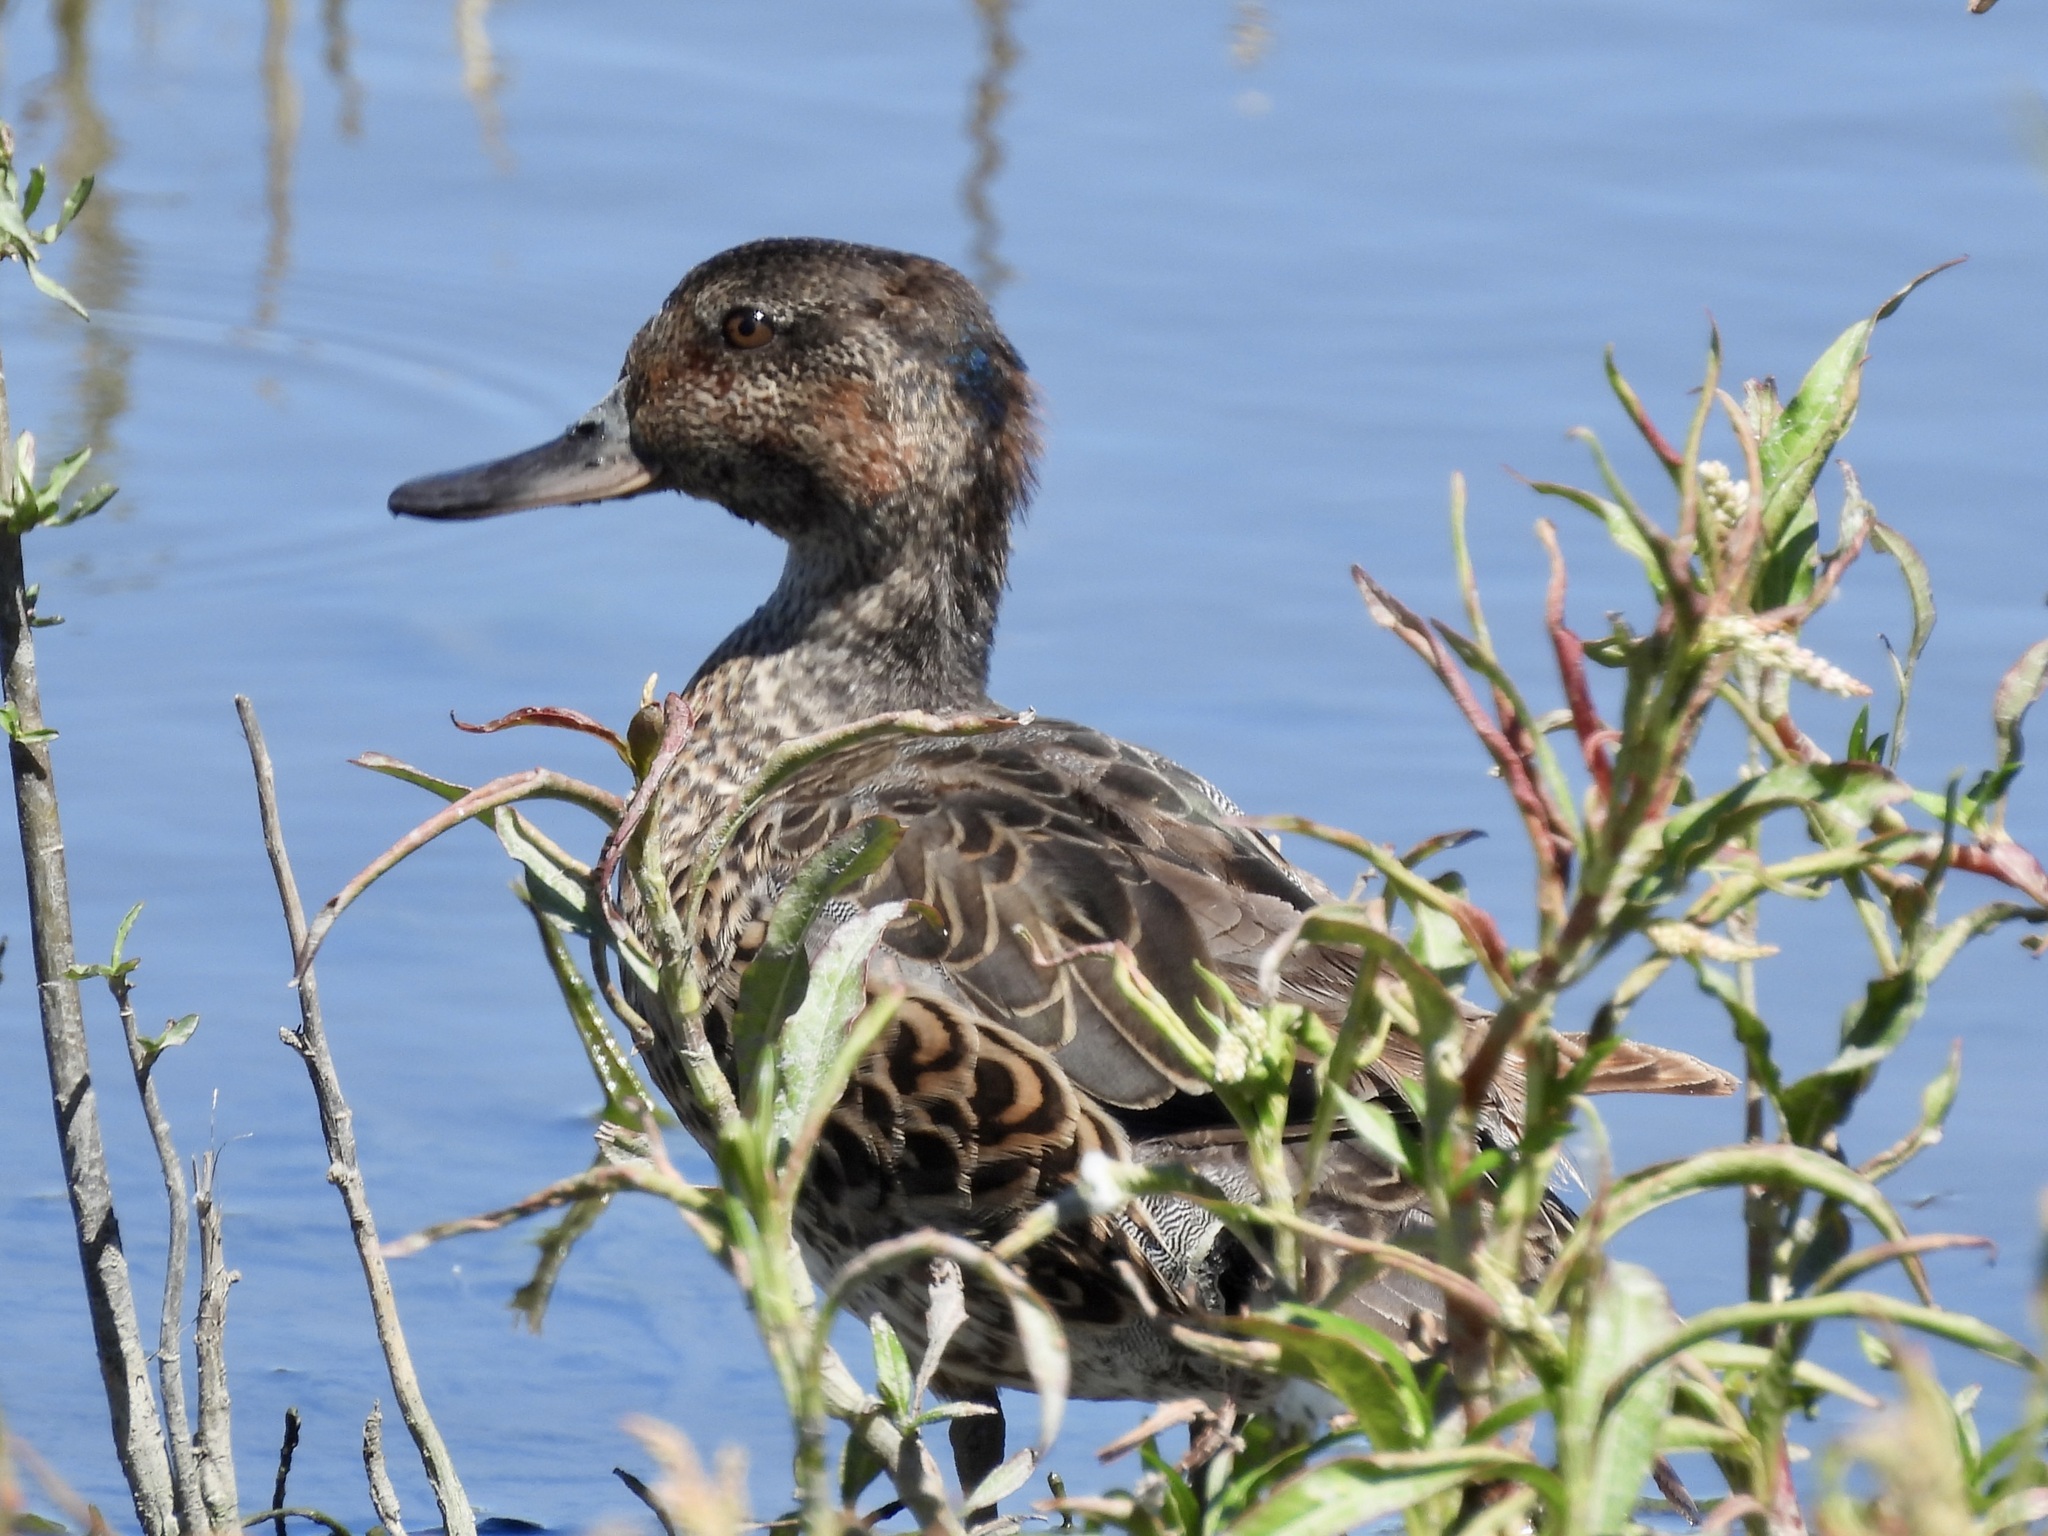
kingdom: Animalia
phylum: Chordata
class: Aves
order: Anseriformes
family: Anatidae
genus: Anas
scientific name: Anas carolinensis
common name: Green-winged teal
